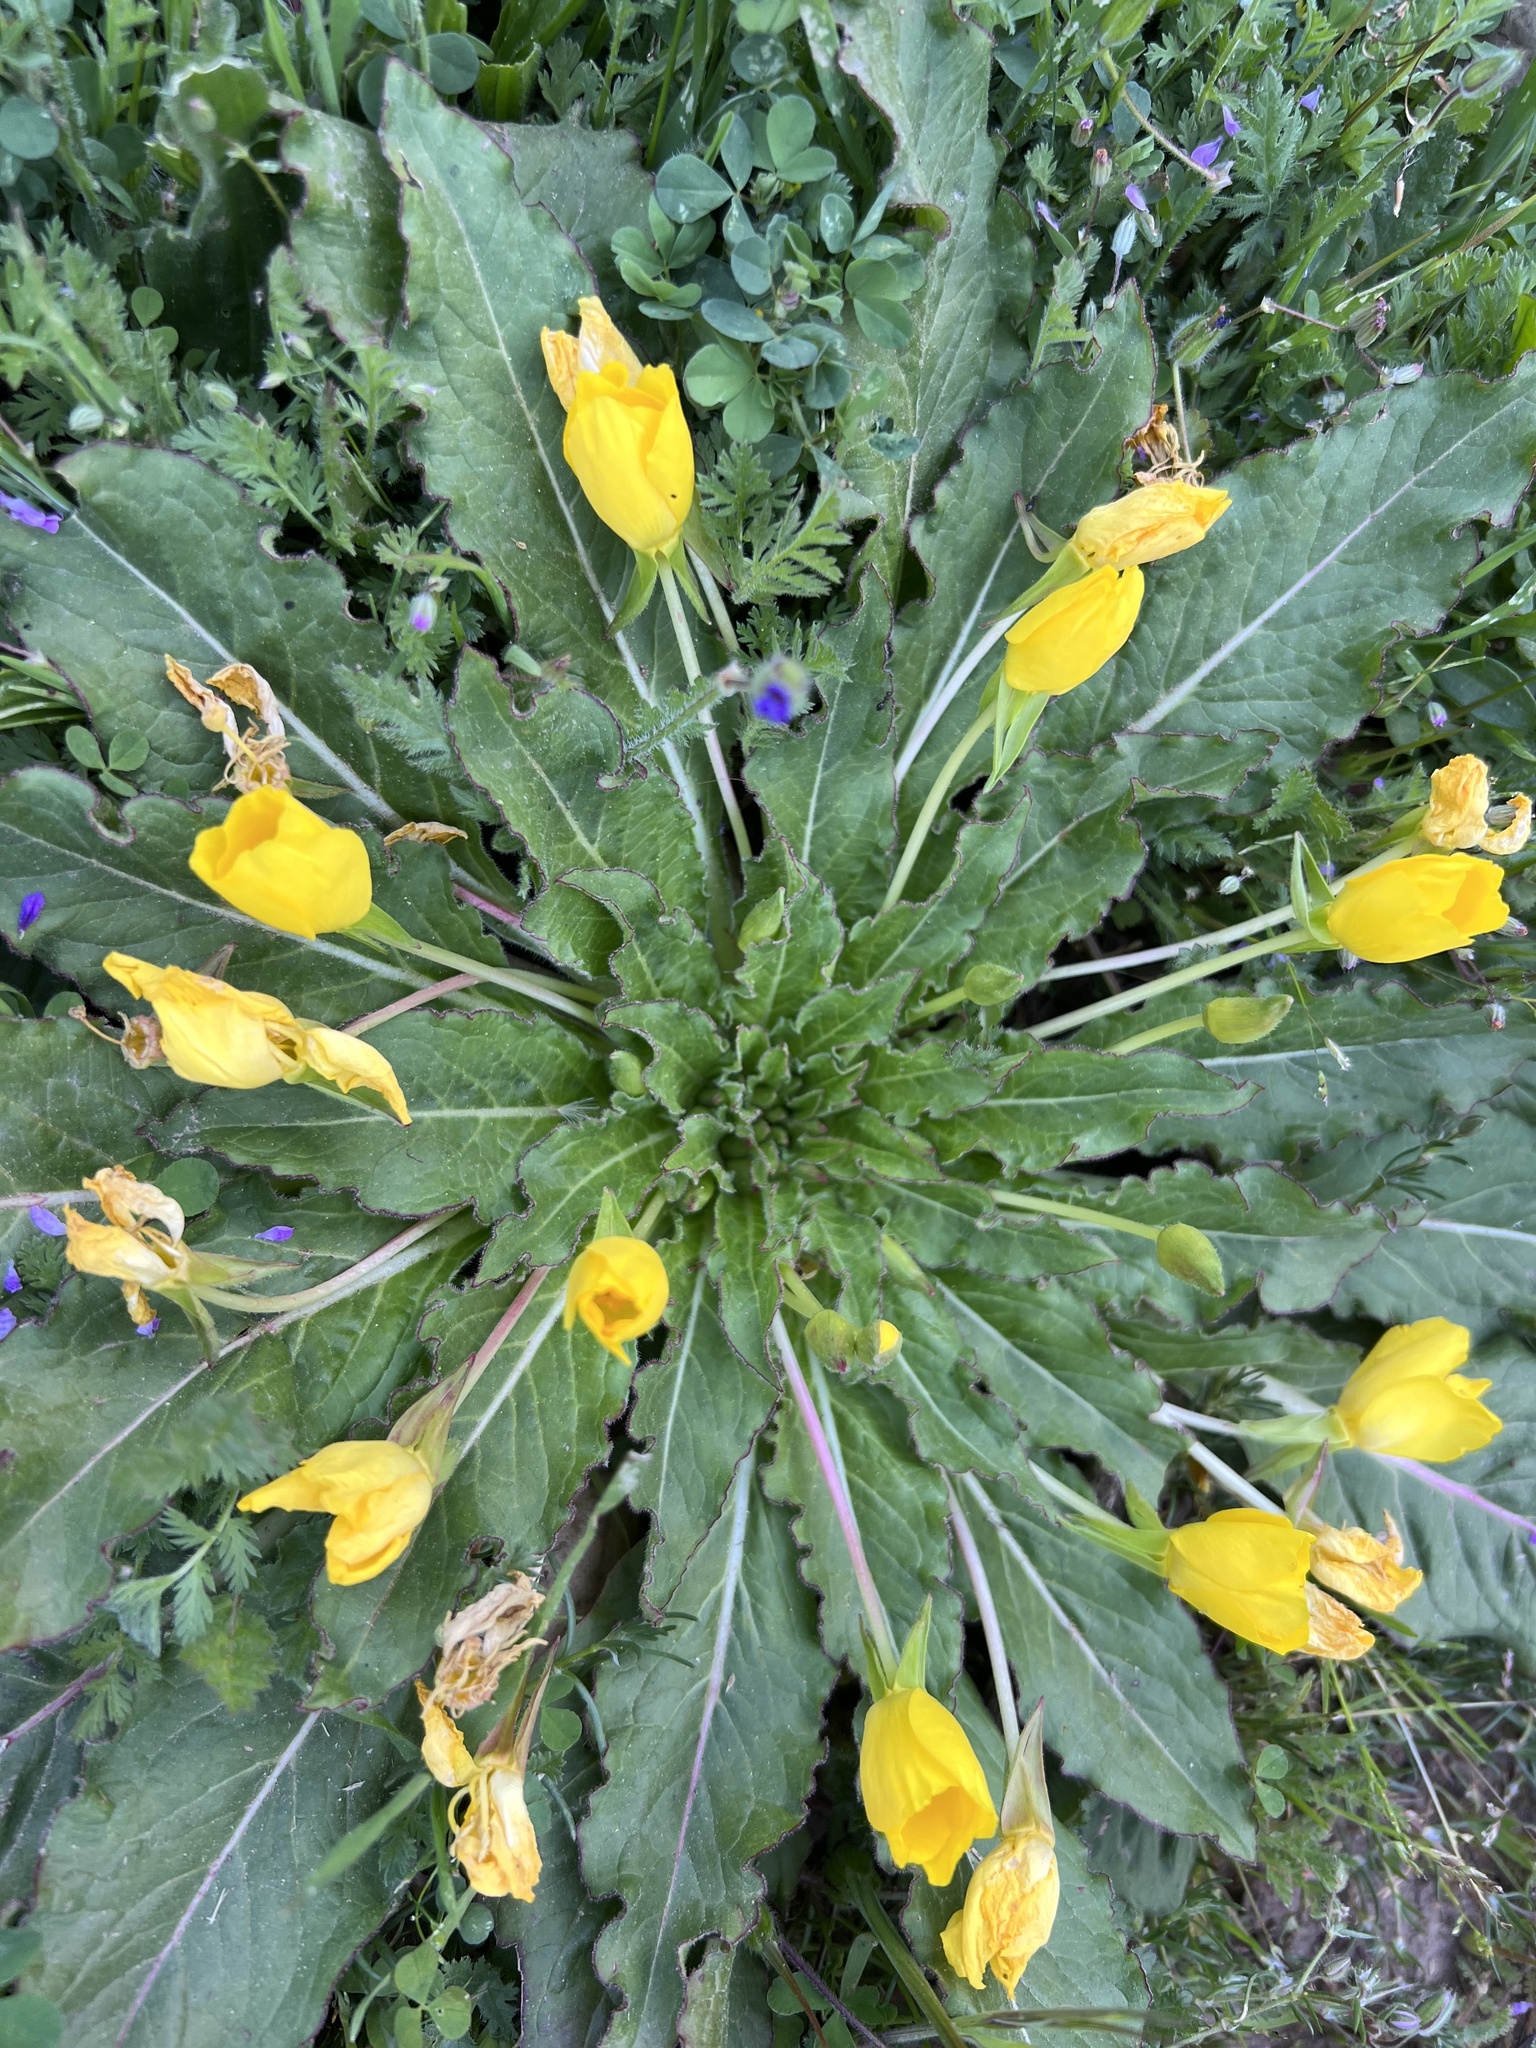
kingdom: Plantae
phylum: Tracheophyta
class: Magnoliopsida
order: Myrtales
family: Onagraceae
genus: Taraxia
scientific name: Taraxia ovata
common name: Goldeneggs
